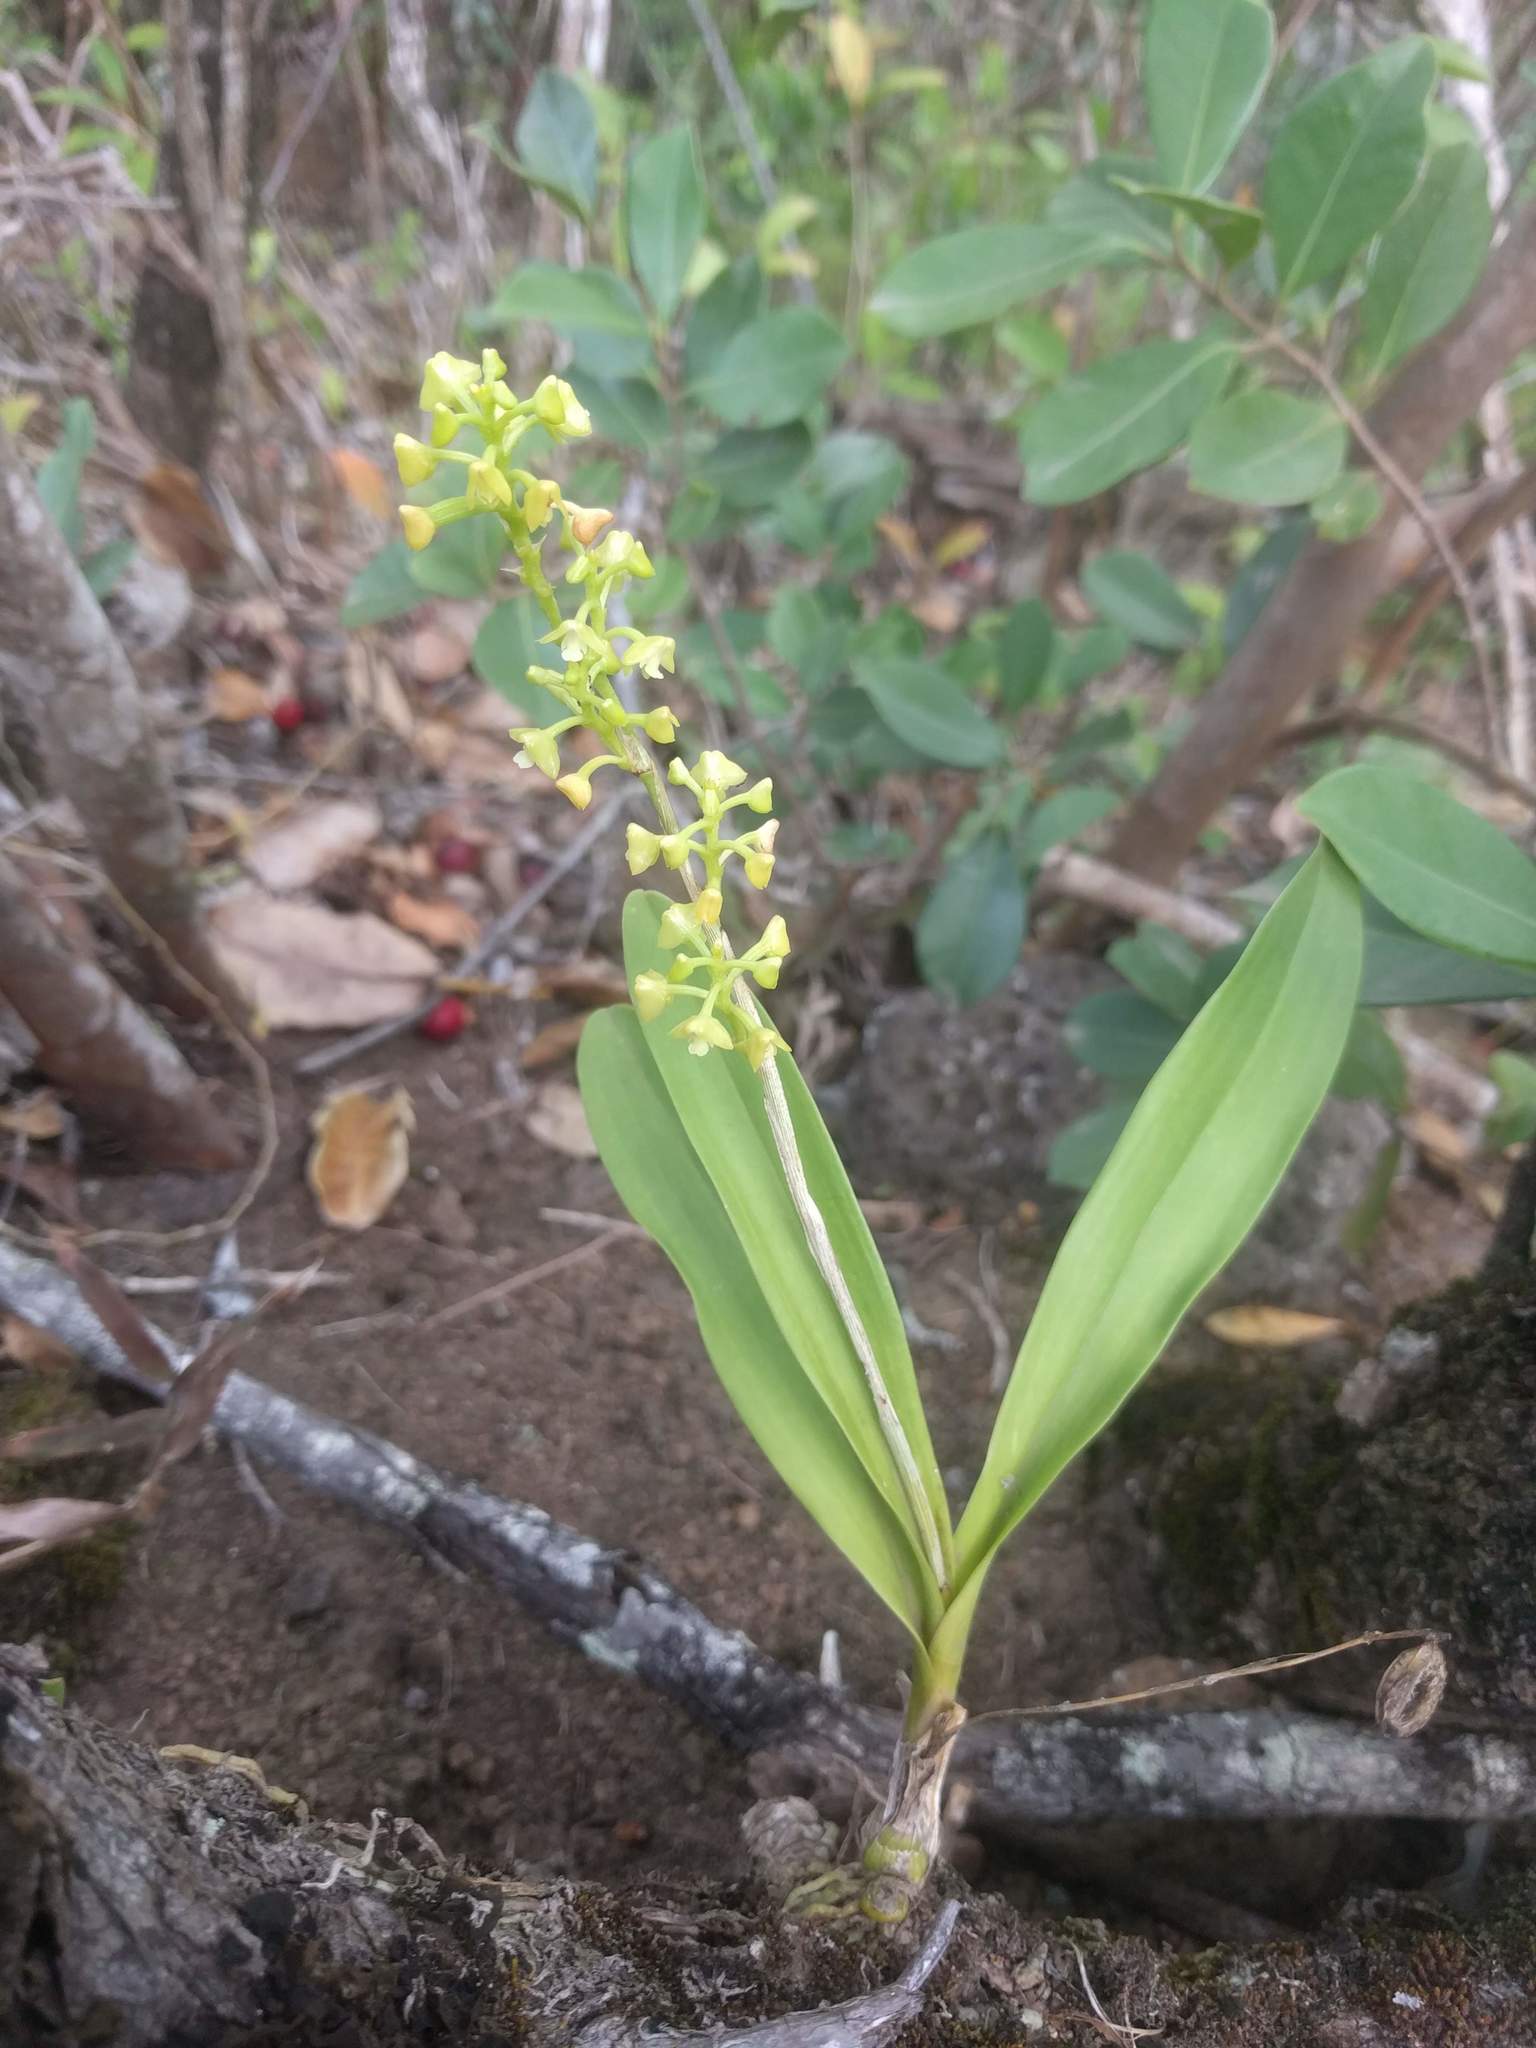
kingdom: Plantae
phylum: Tracheophyta
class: Liliopsida
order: Asparagales
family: Orchidaceae
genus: Polystachya
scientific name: Polystachya concreta
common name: Greater yellowspike orchid
